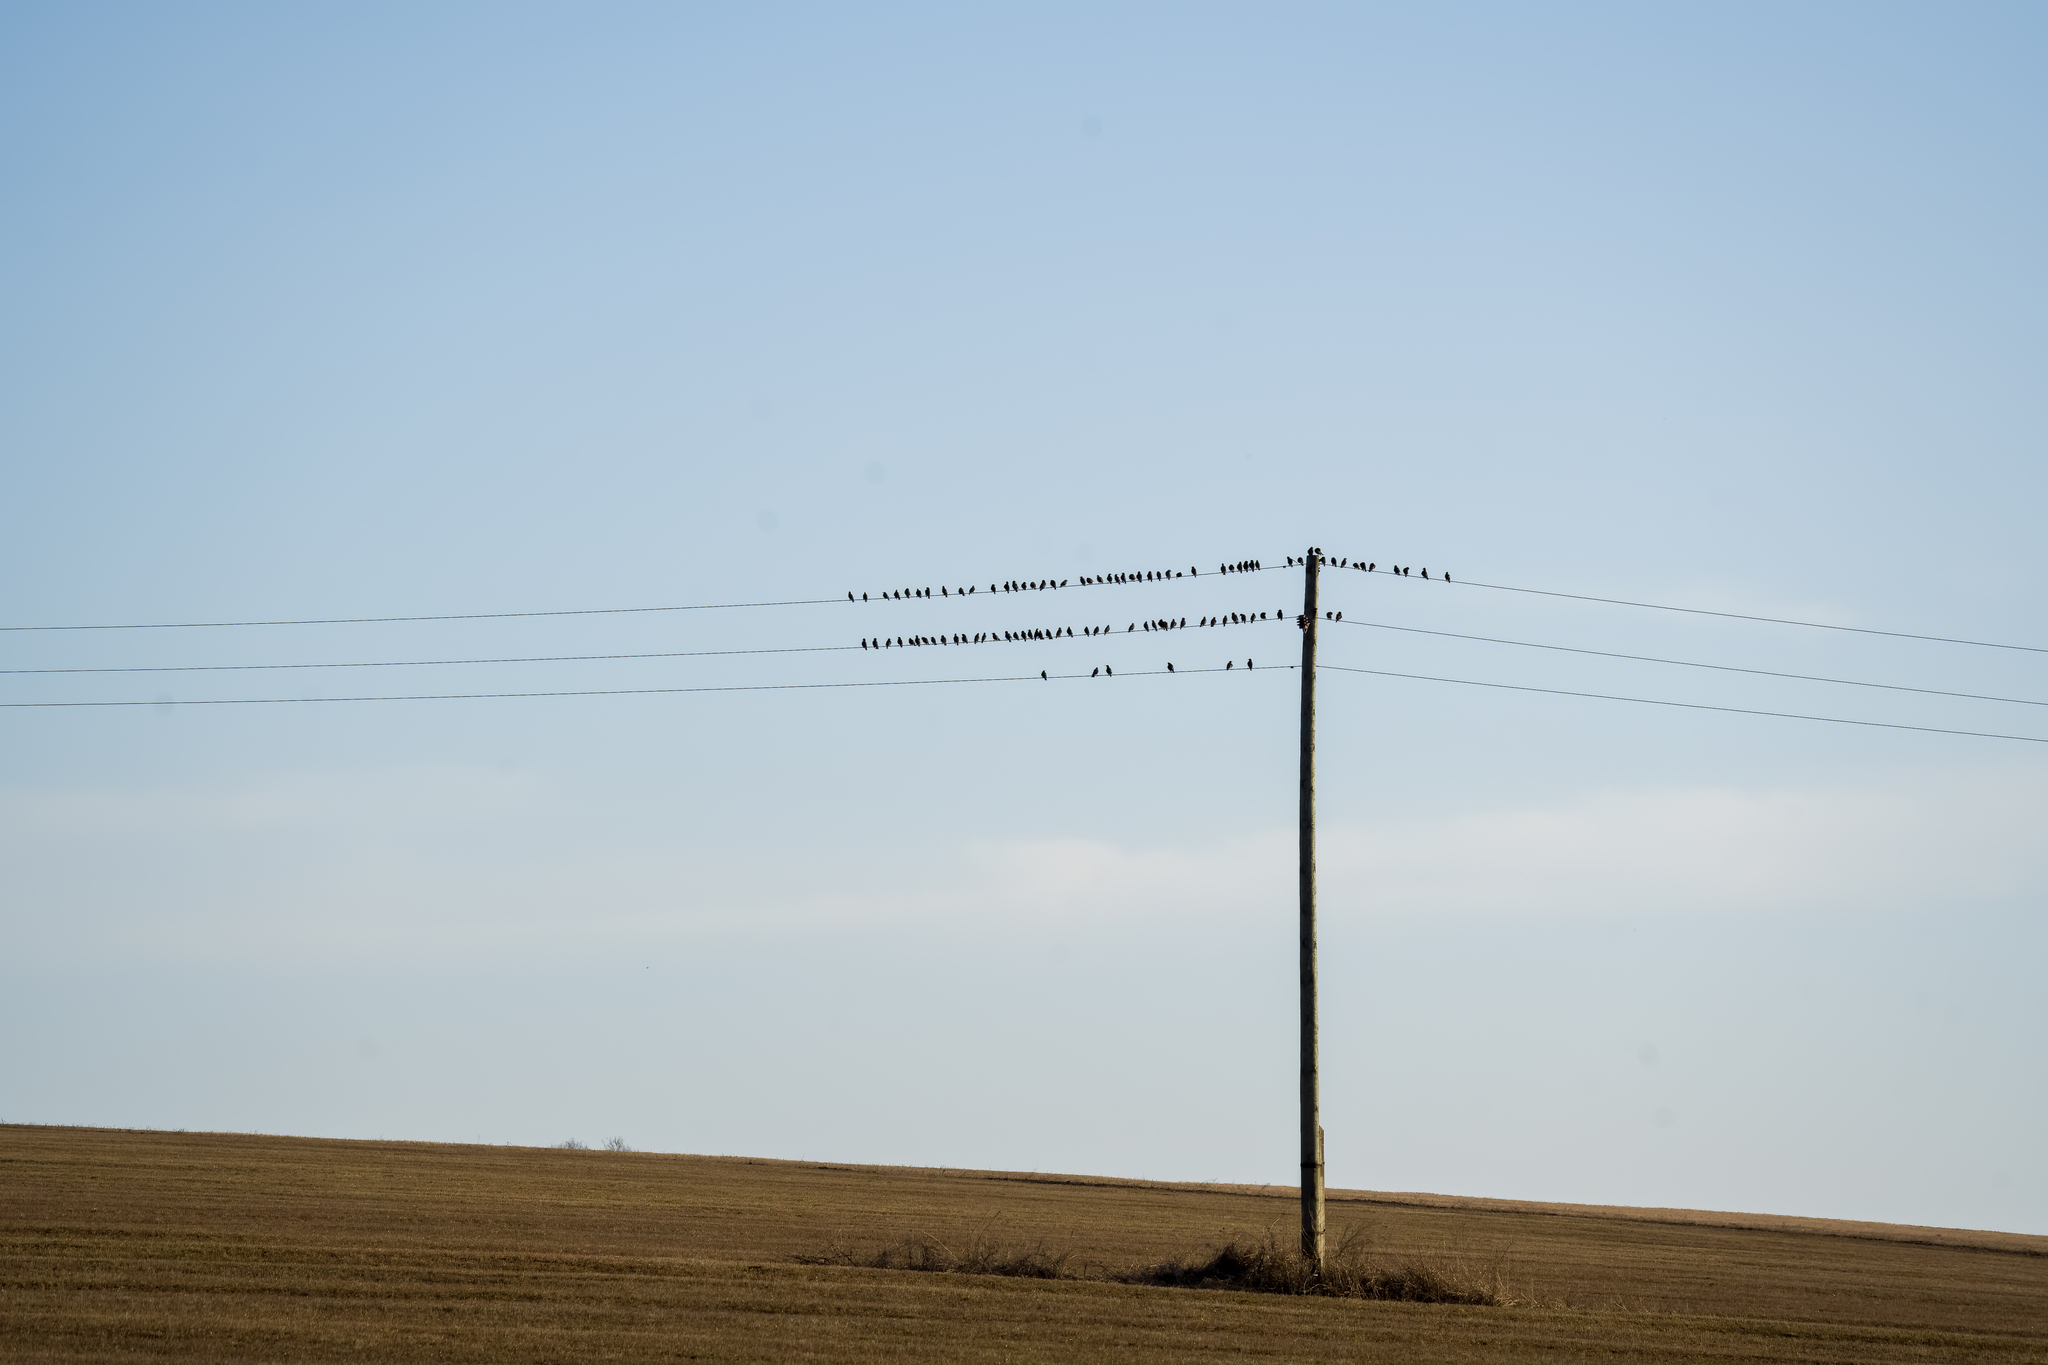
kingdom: Animalia
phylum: Chordata
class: Aves
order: Passeriformes
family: Sturnidae
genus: Sturnus
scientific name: Sturnus vulgaris
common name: Common starling
